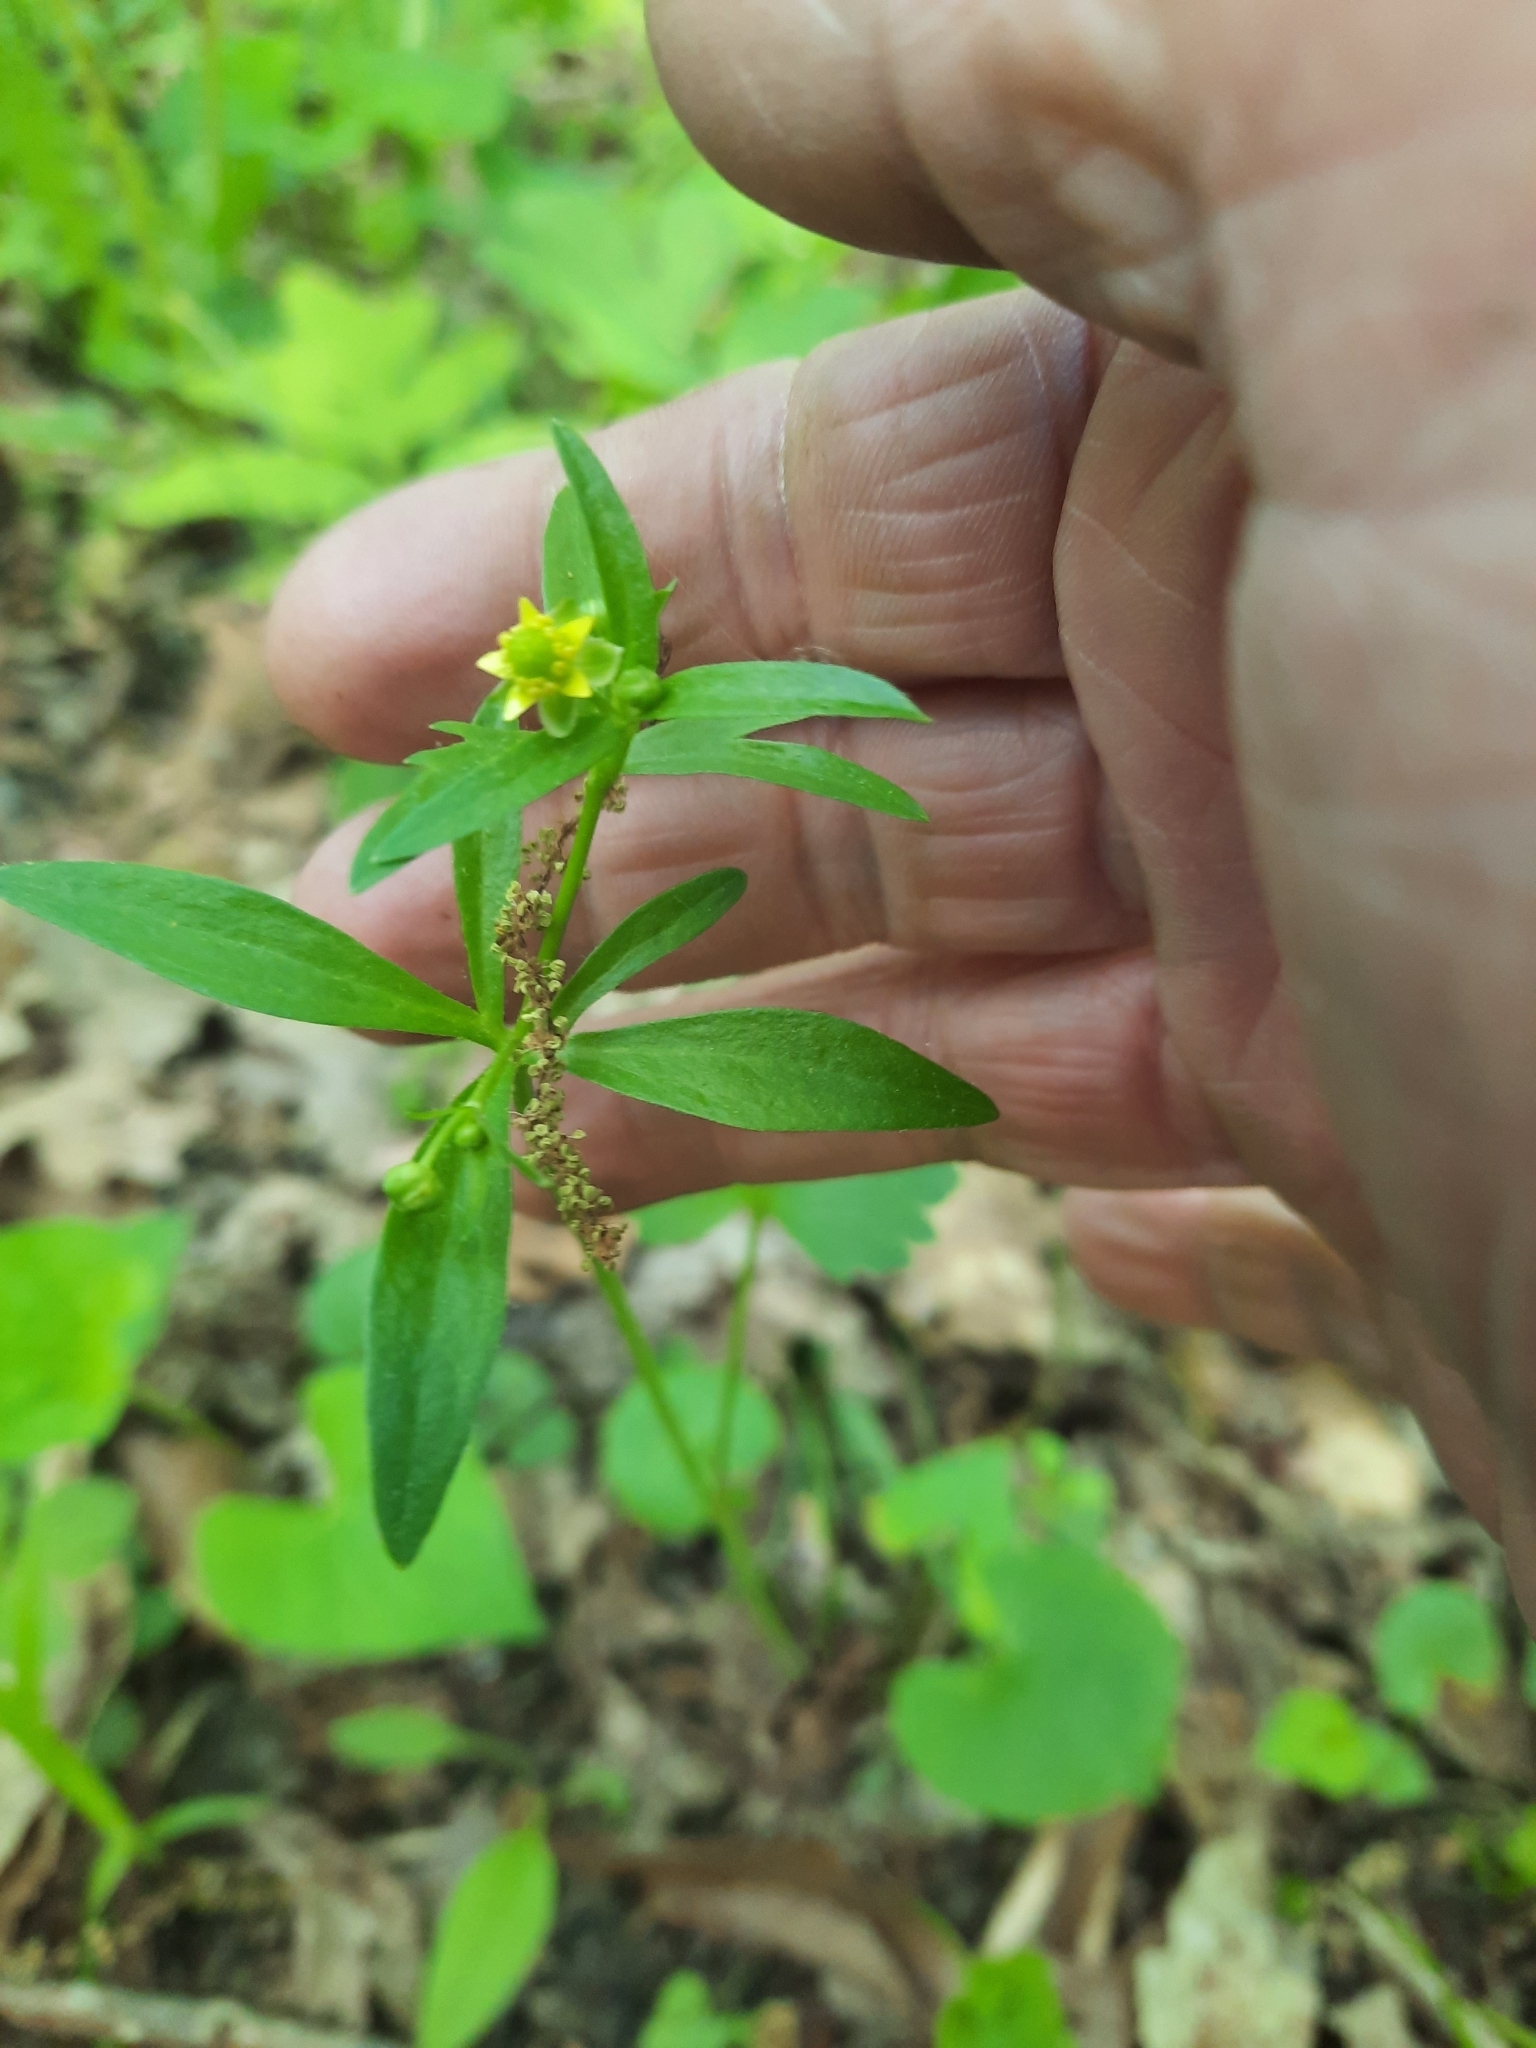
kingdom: Plantae
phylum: Tracheophyta
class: Magnoliopsida
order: Ranunculales
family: Ranunculaceae
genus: Ranunculus
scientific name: Ranunculus abortivus
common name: Early wood buttercup
